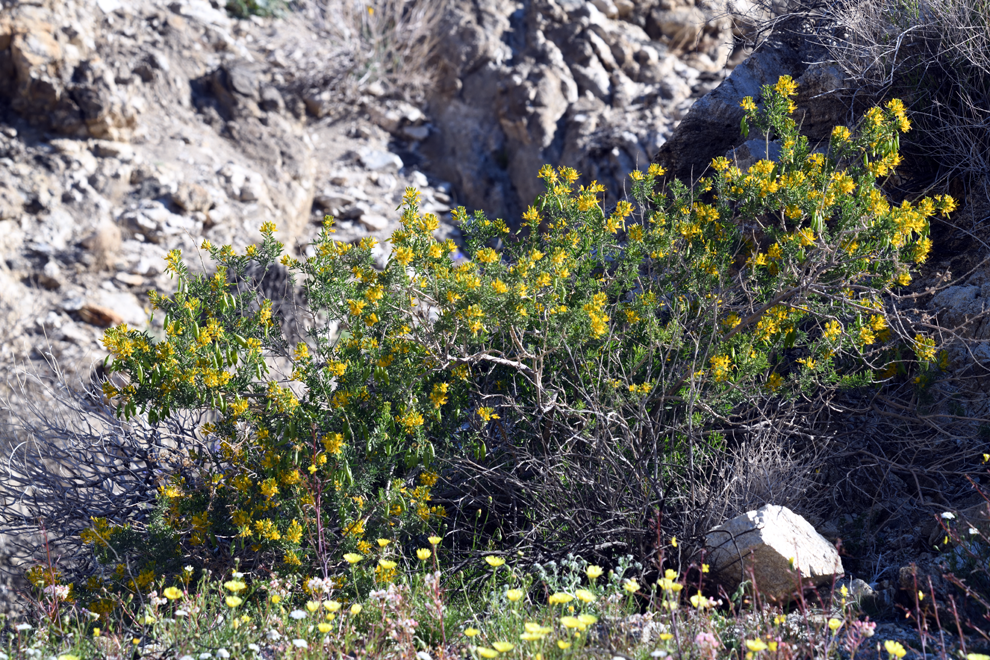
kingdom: Plantae
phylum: Tracheophyta
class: Magnoliopsida
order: Brassicales
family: Cleomaceae
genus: Cleomella
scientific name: Cleomella arborea
